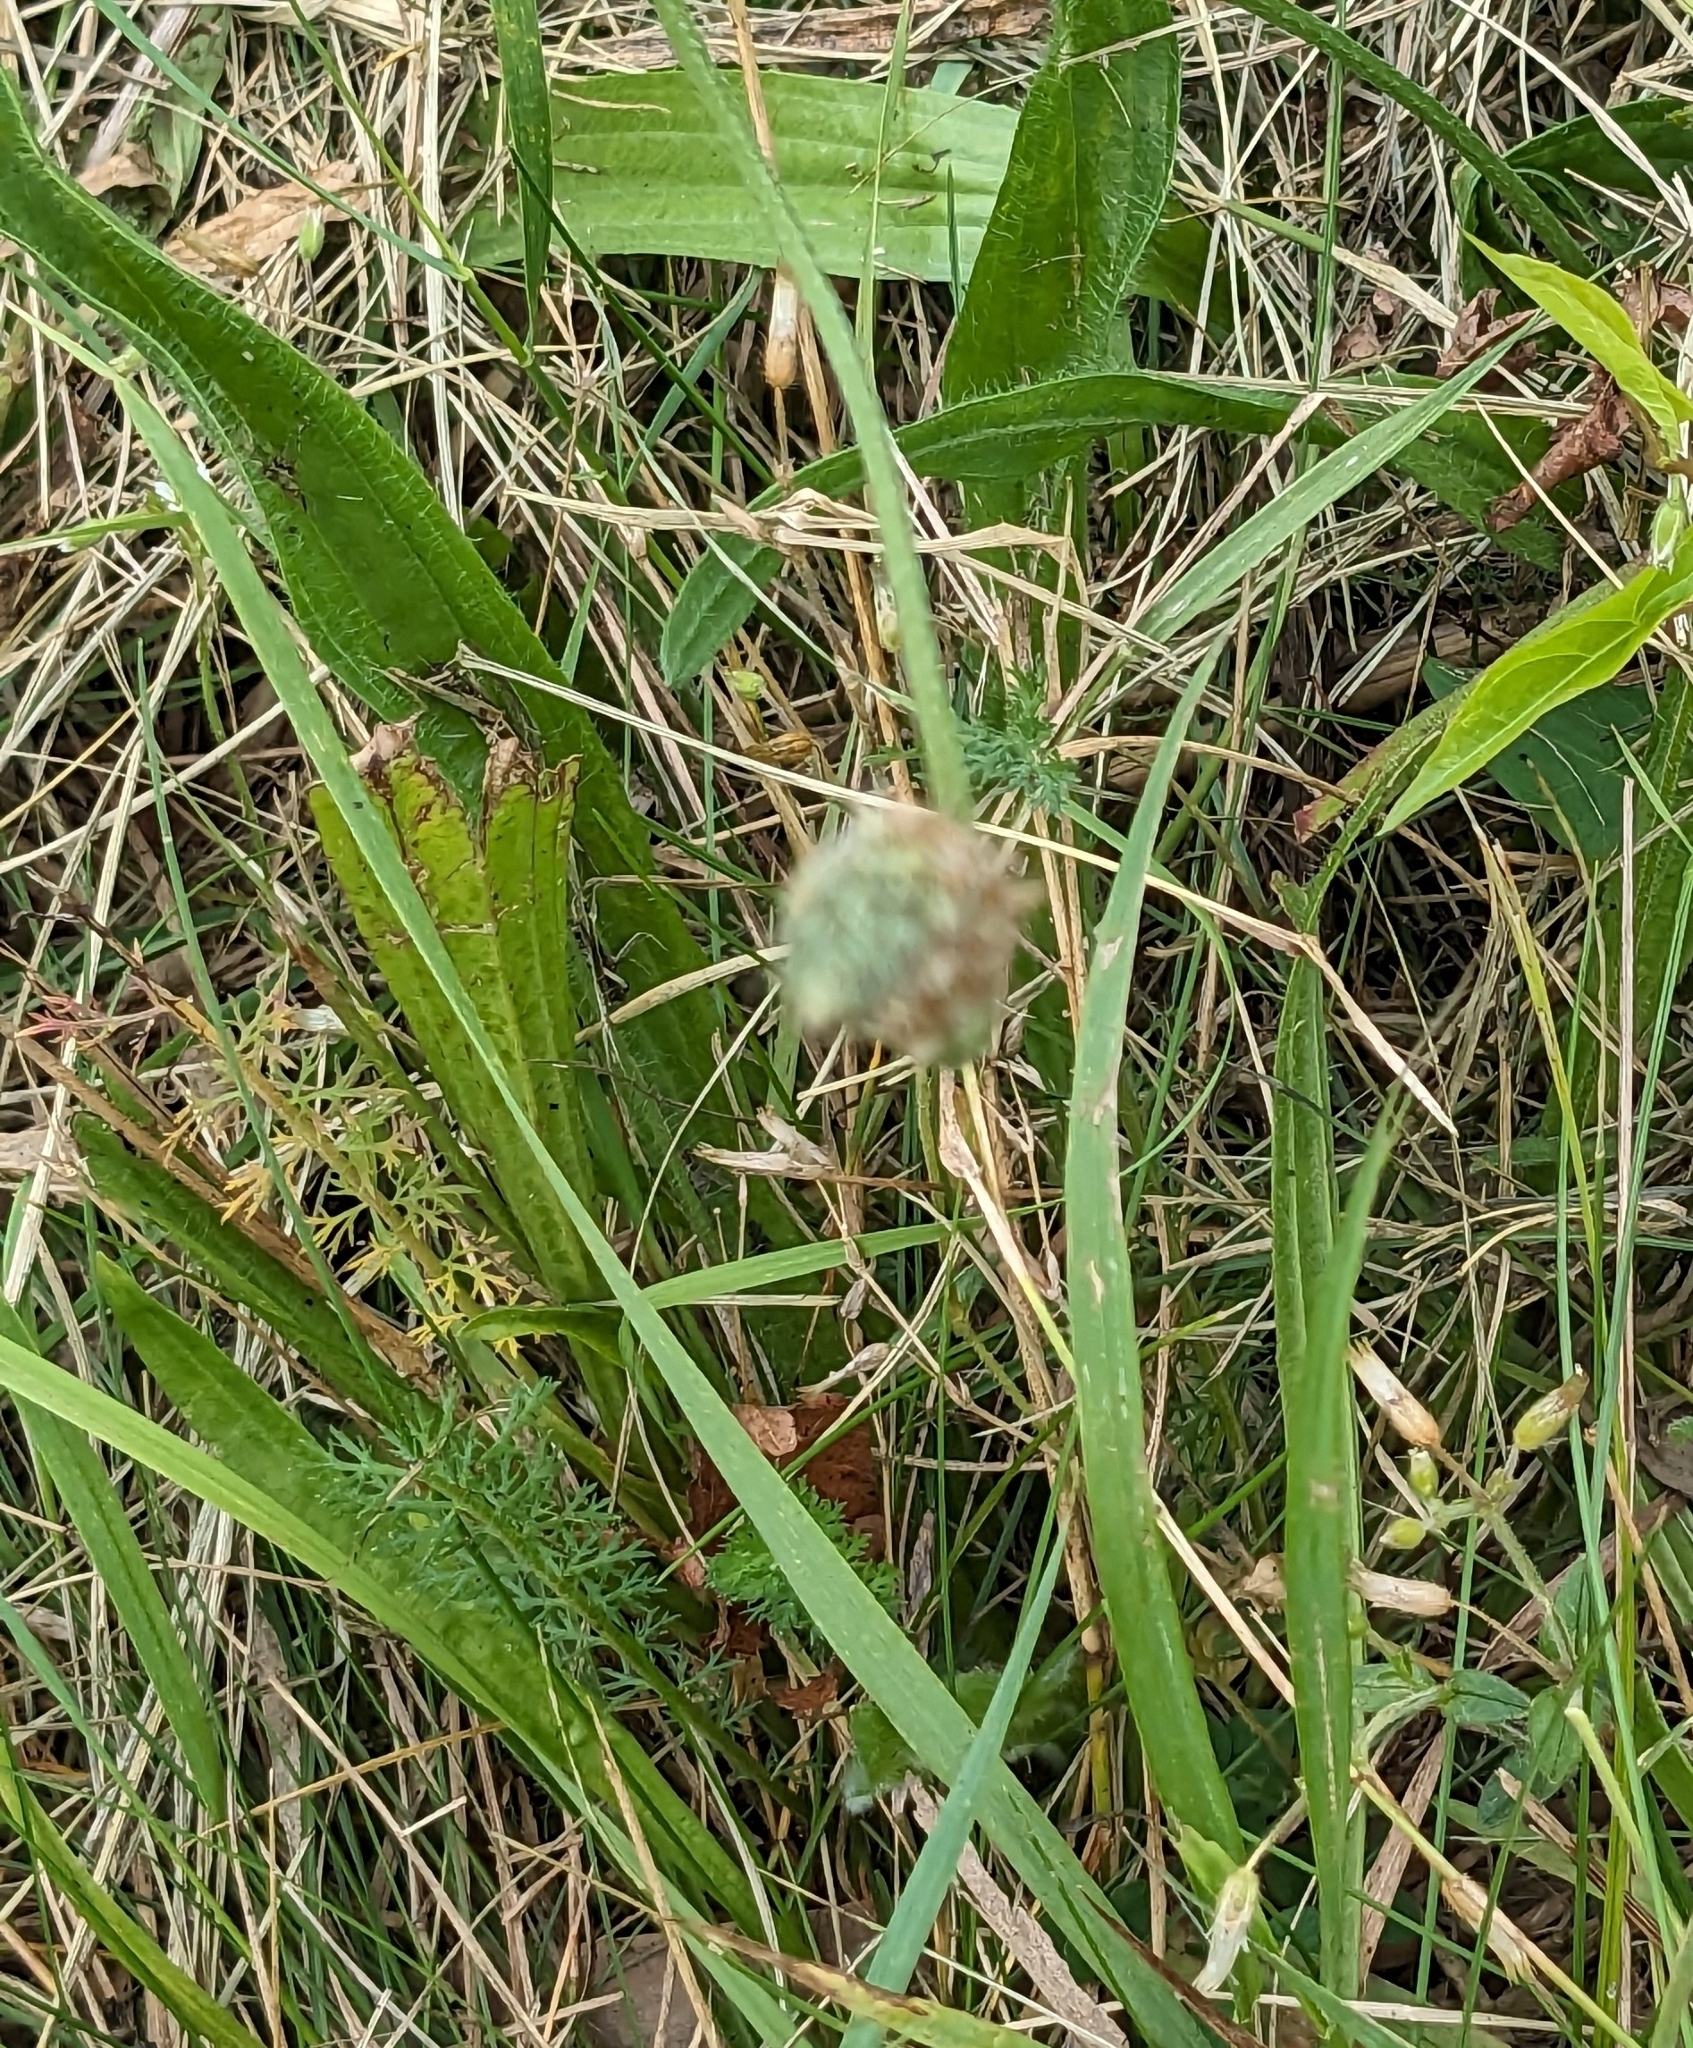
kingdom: Plantae
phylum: Tracheophyta
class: Magnoliopsida
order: Lamiales
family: Plantaginaceae
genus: Plantago
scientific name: Plantago lanceolata
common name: Ribwort plantain
